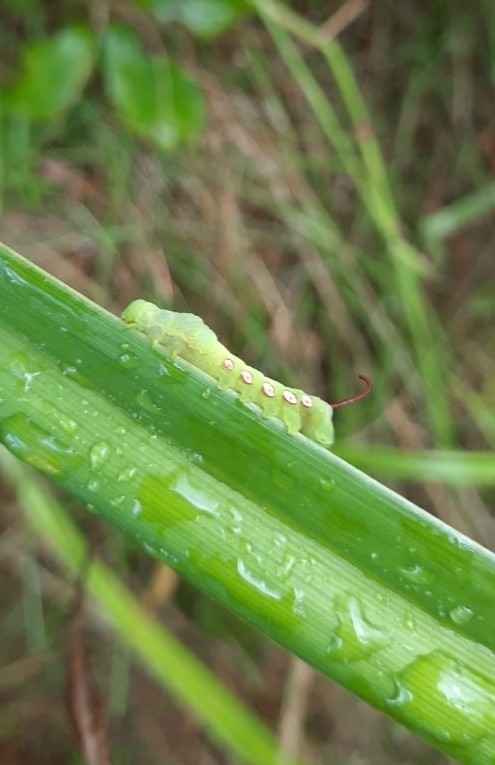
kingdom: Animalia
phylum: Arthropoda
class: Insecta
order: Lepidoptera
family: Sphingidae
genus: Eumorpha
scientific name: Eumorpha pandorus
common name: Pandora sphinx
